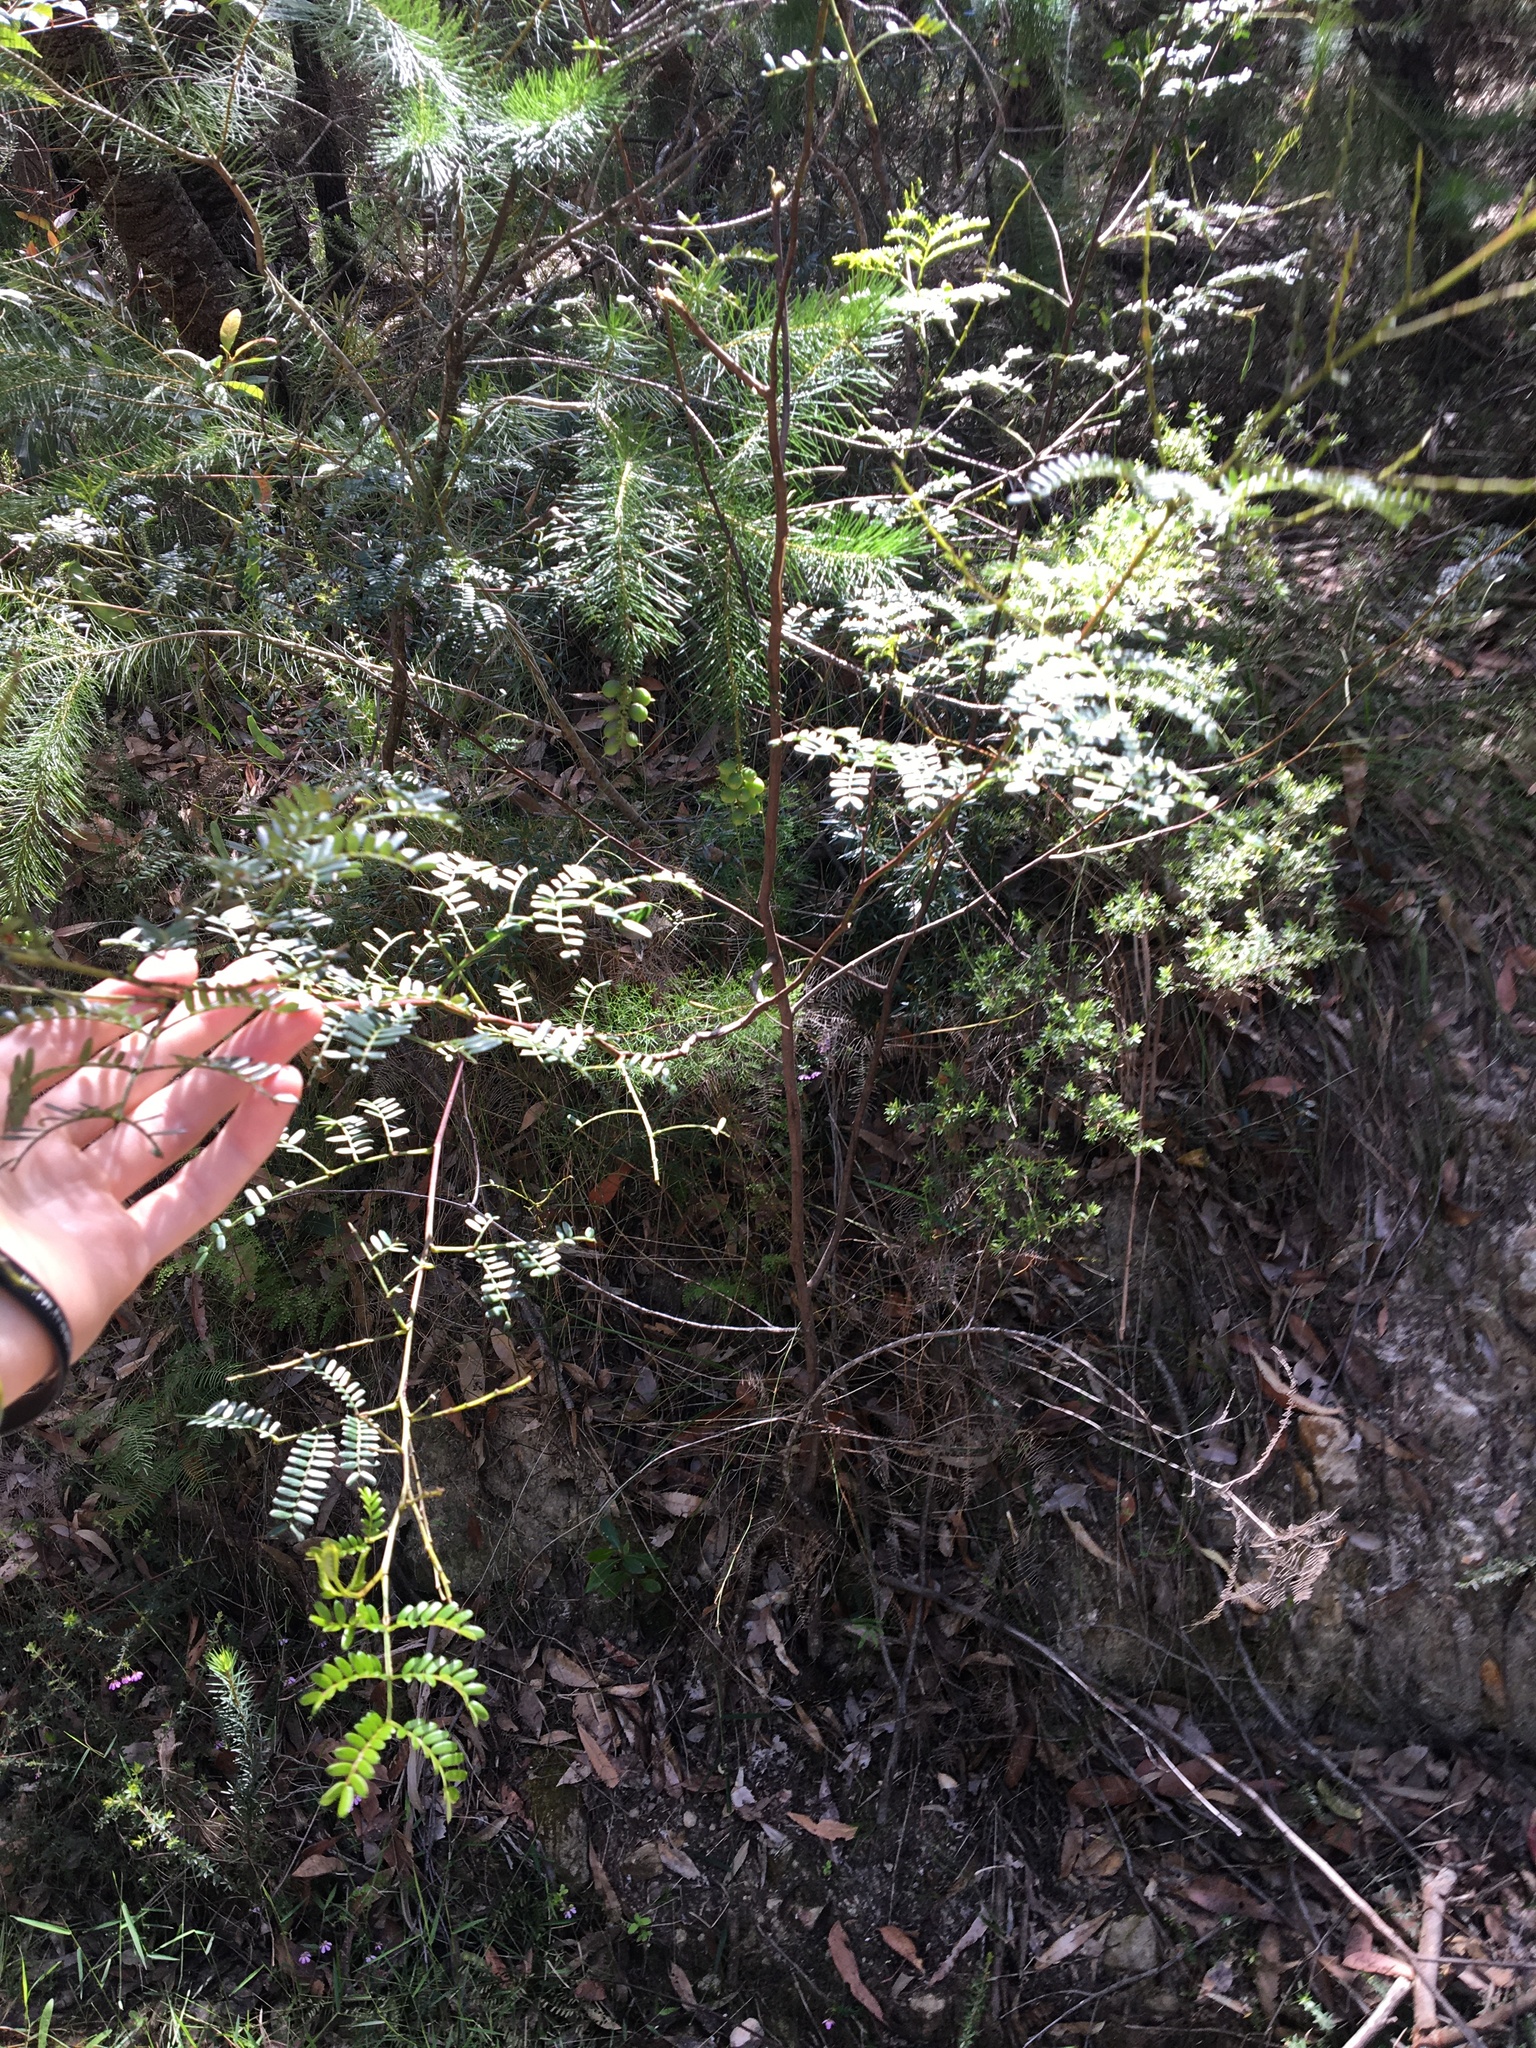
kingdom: Plantae
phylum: Tracheophyta
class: Magnoliopsida
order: Fabales
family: Fabaceae
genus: Acacia
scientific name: Acacia terminalis
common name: Cedar wattle
